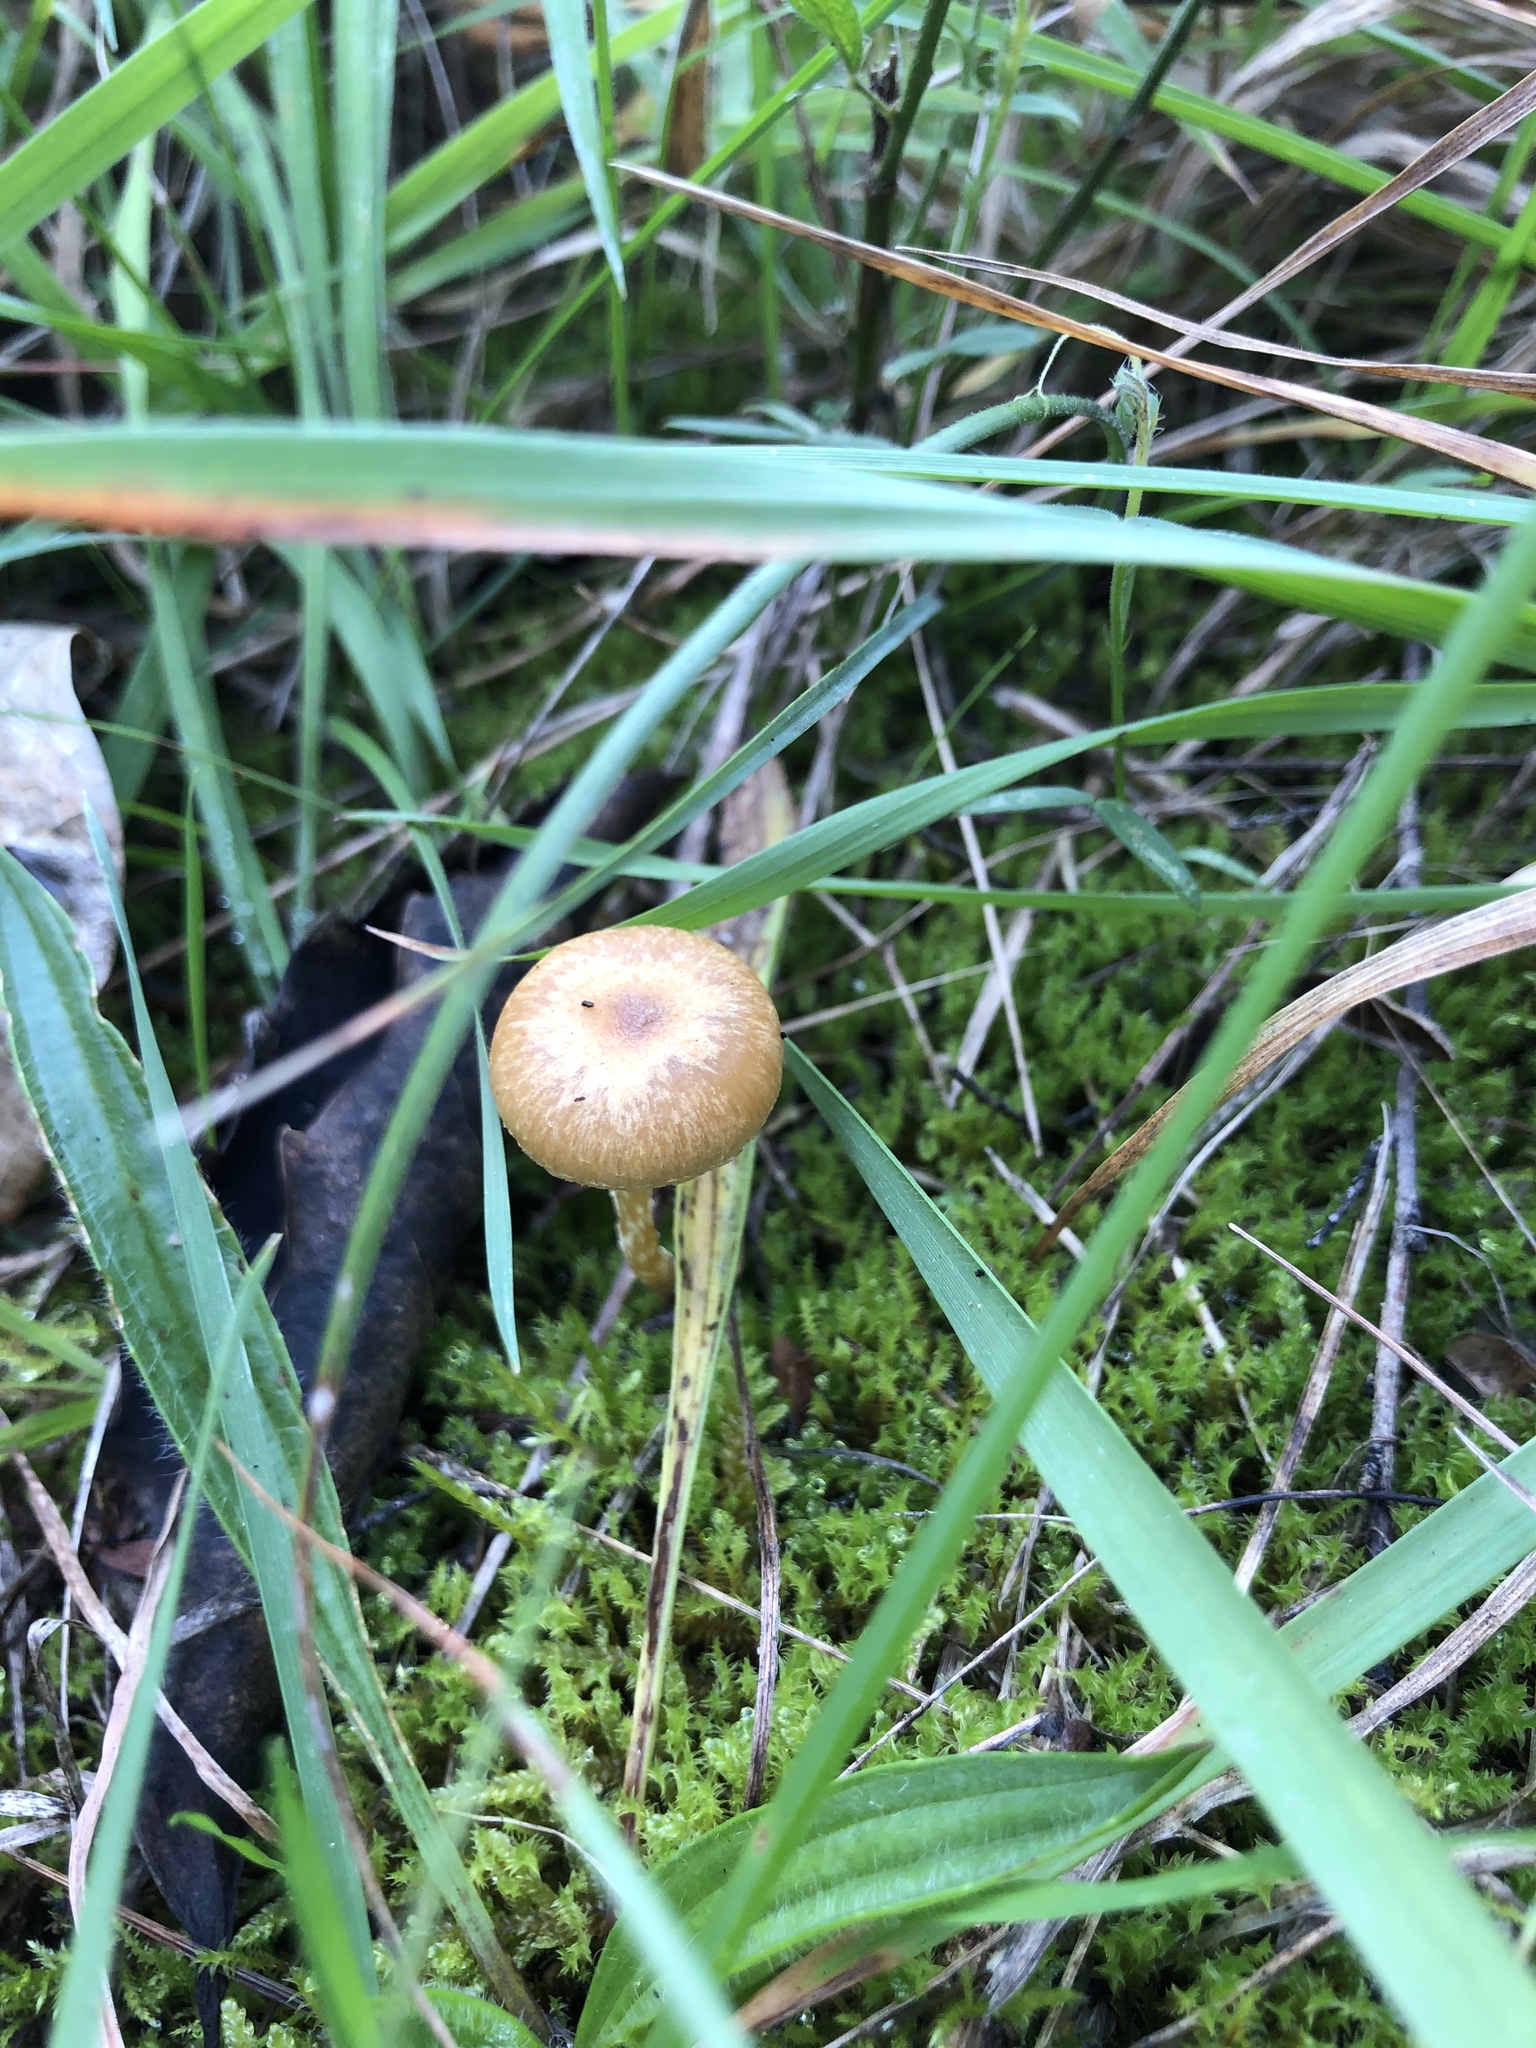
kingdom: Fungi
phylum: Basidiomycota
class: Agaricomycetes
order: Agaricales
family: Tubariaceae
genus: Tubaria
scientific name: Tubaria furfuracea
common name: Scurfy twiglet
